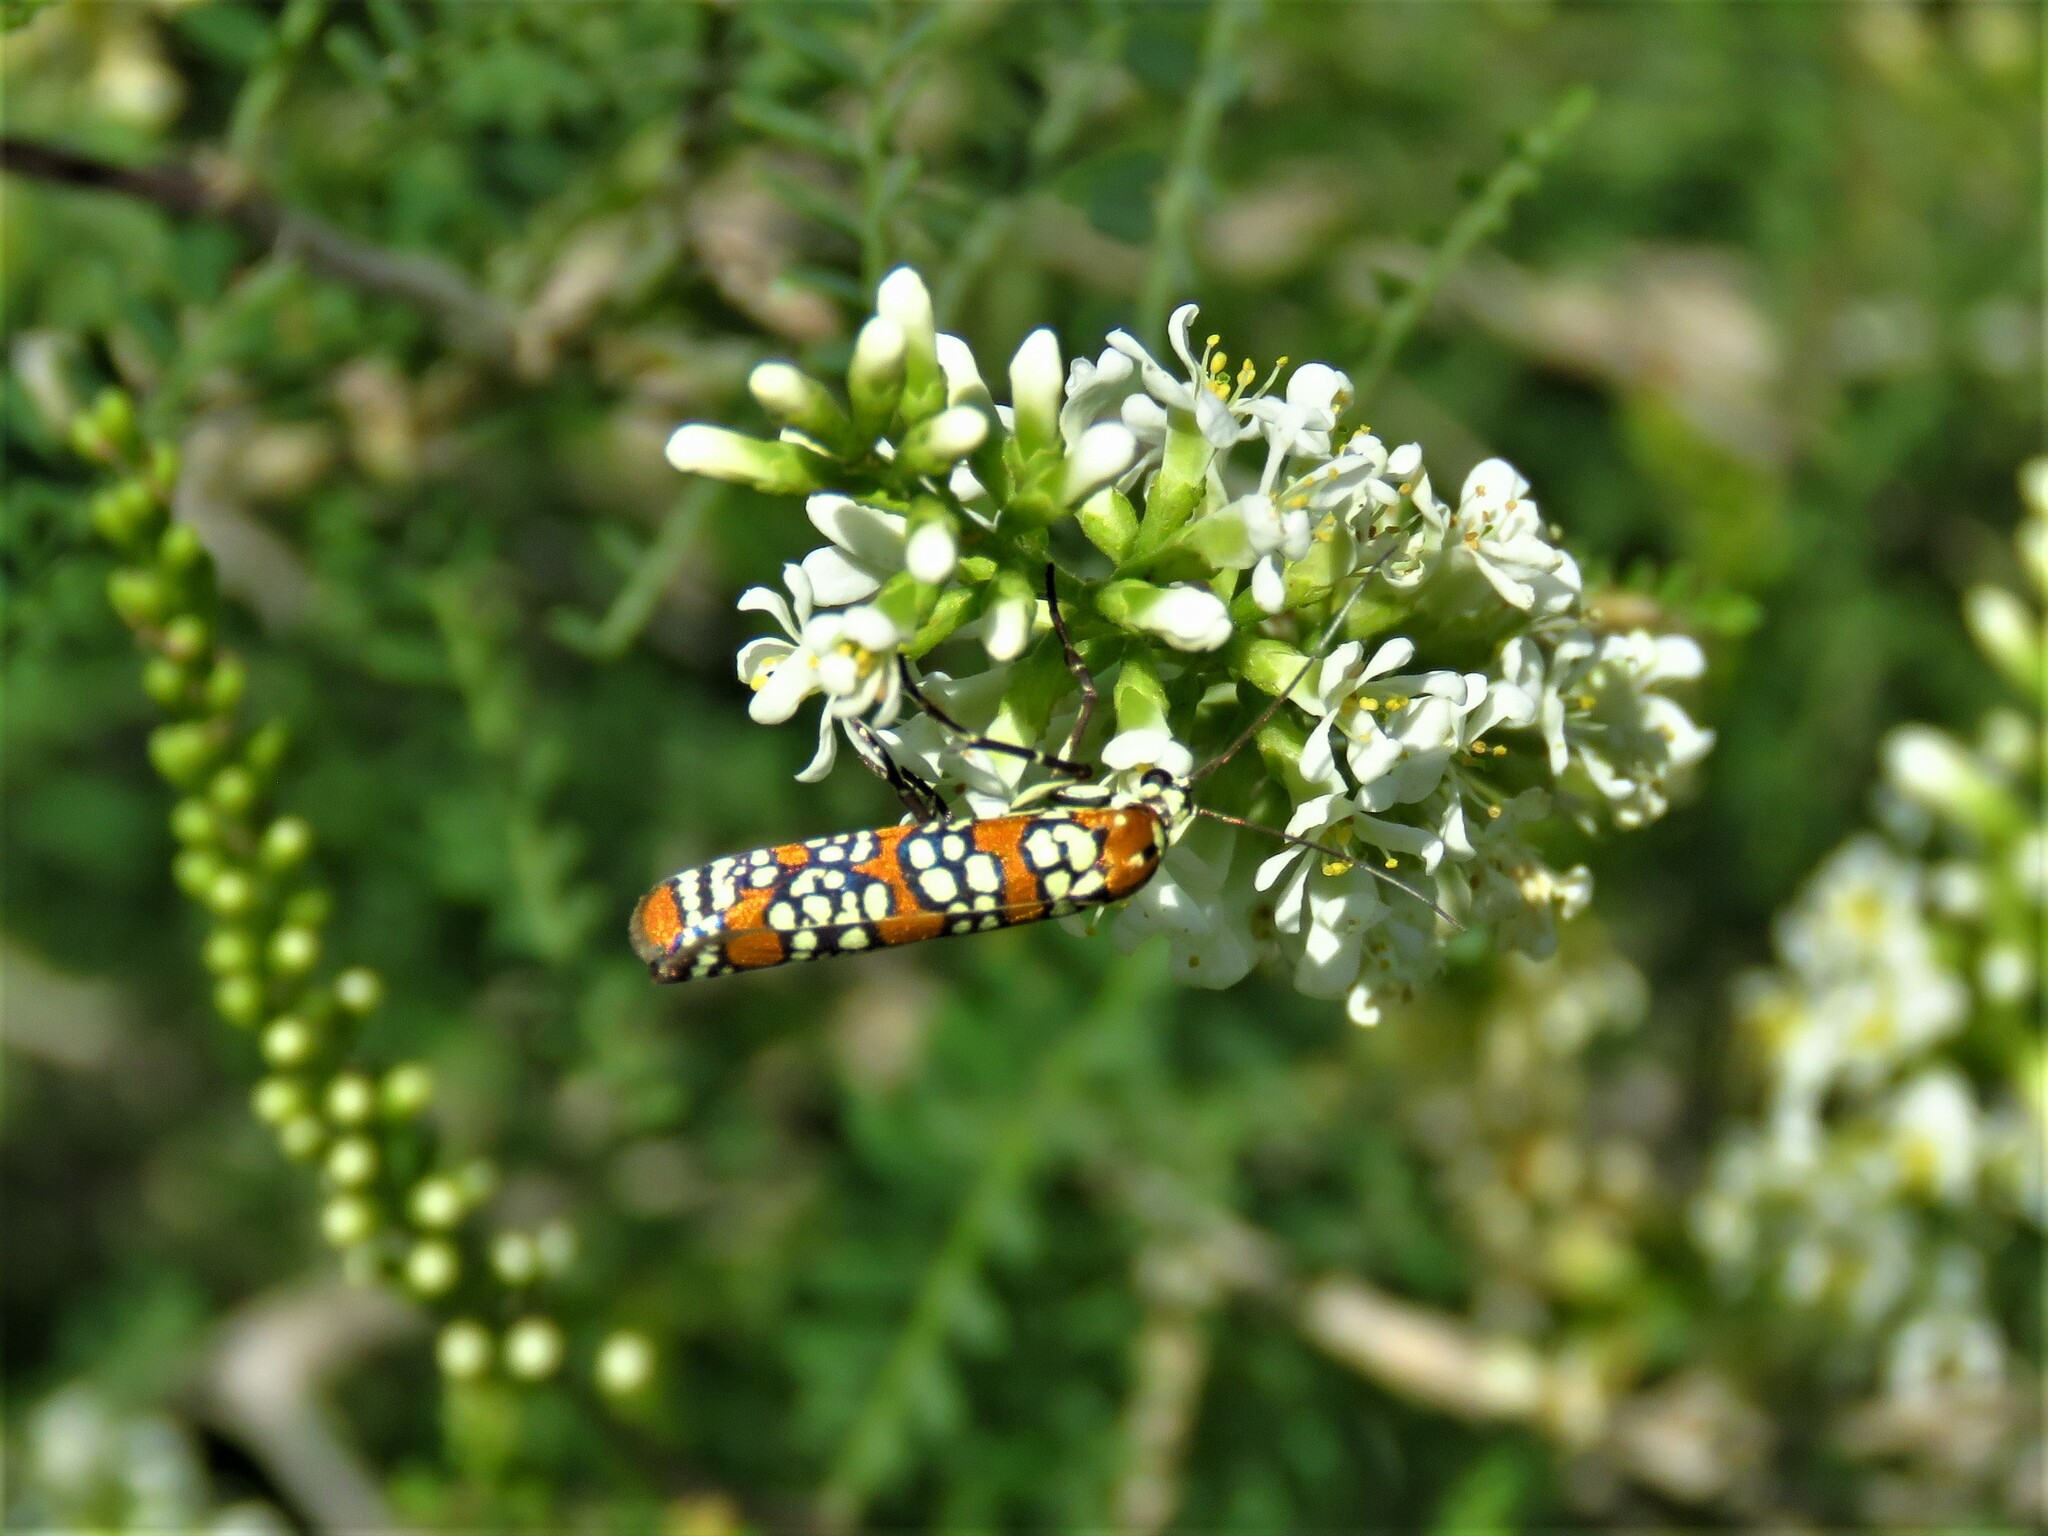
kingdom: Animalia
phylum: Arthropoda
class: Insecta
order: Lepidoptera
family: Attevidae
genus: Atteva
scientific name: Atteva punctella
